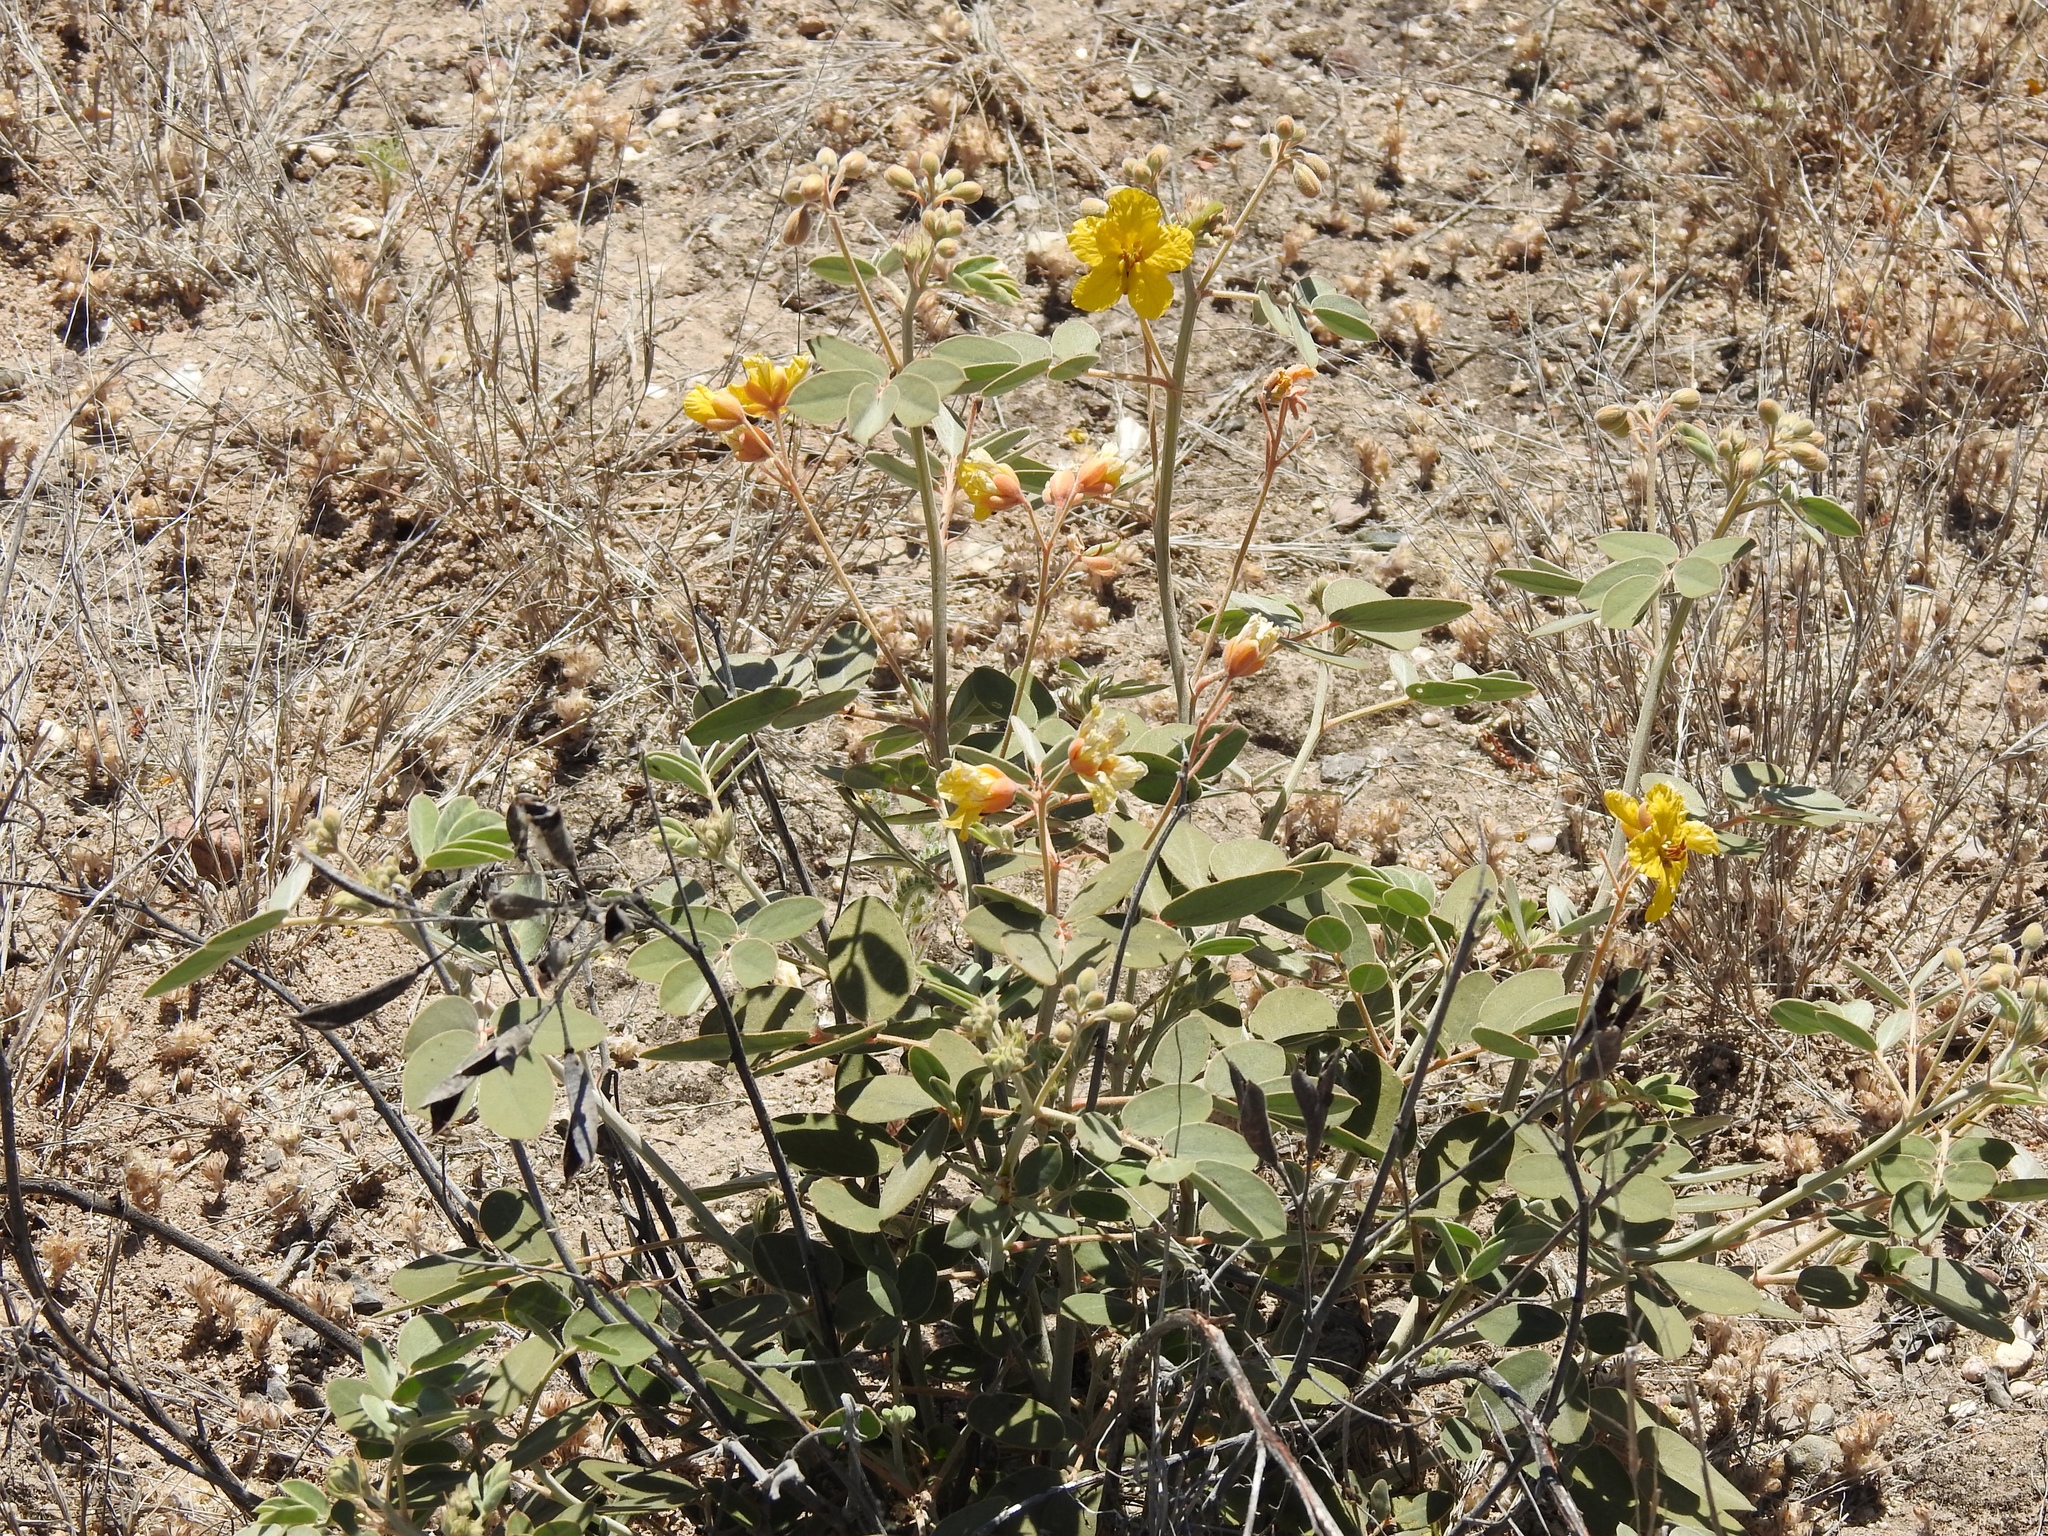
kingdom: Plantae
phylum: Tracheophyta
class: Magnoliopsida
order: Fabales
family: Fabaceae
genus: Senna
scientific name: Senna covesii
